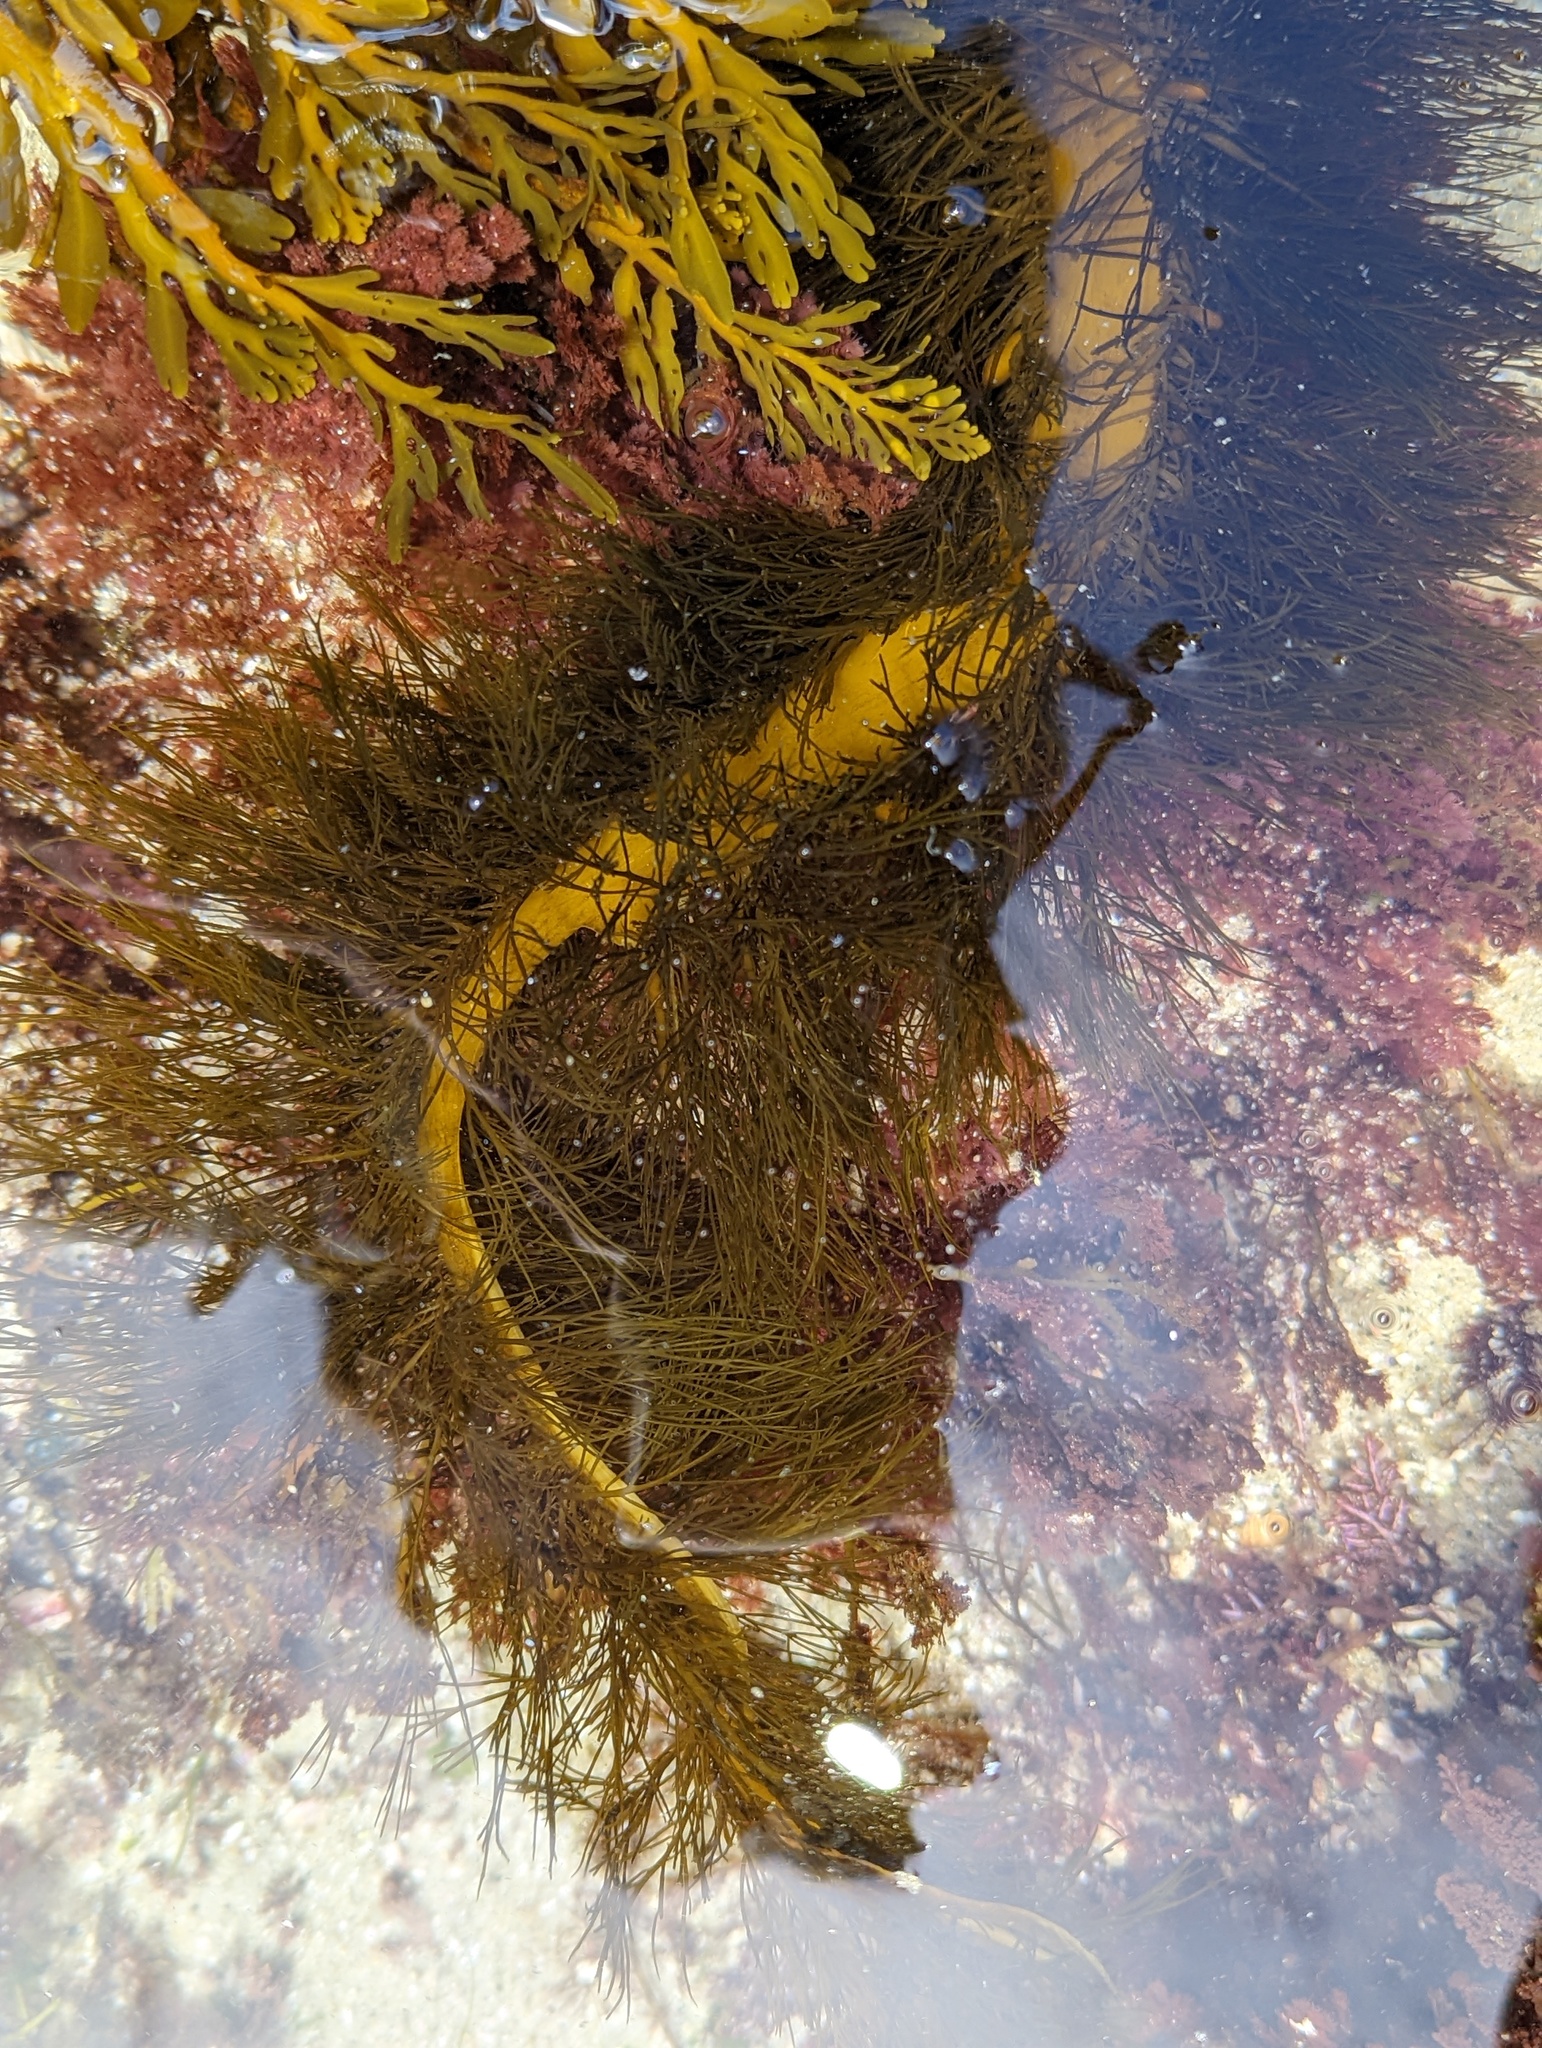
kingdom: Chromista
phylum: Ochrophyta
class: Phaeophyceae
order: Laminariales
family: Lessoniaceae
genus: Egregia
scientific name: Egregia menziesii
